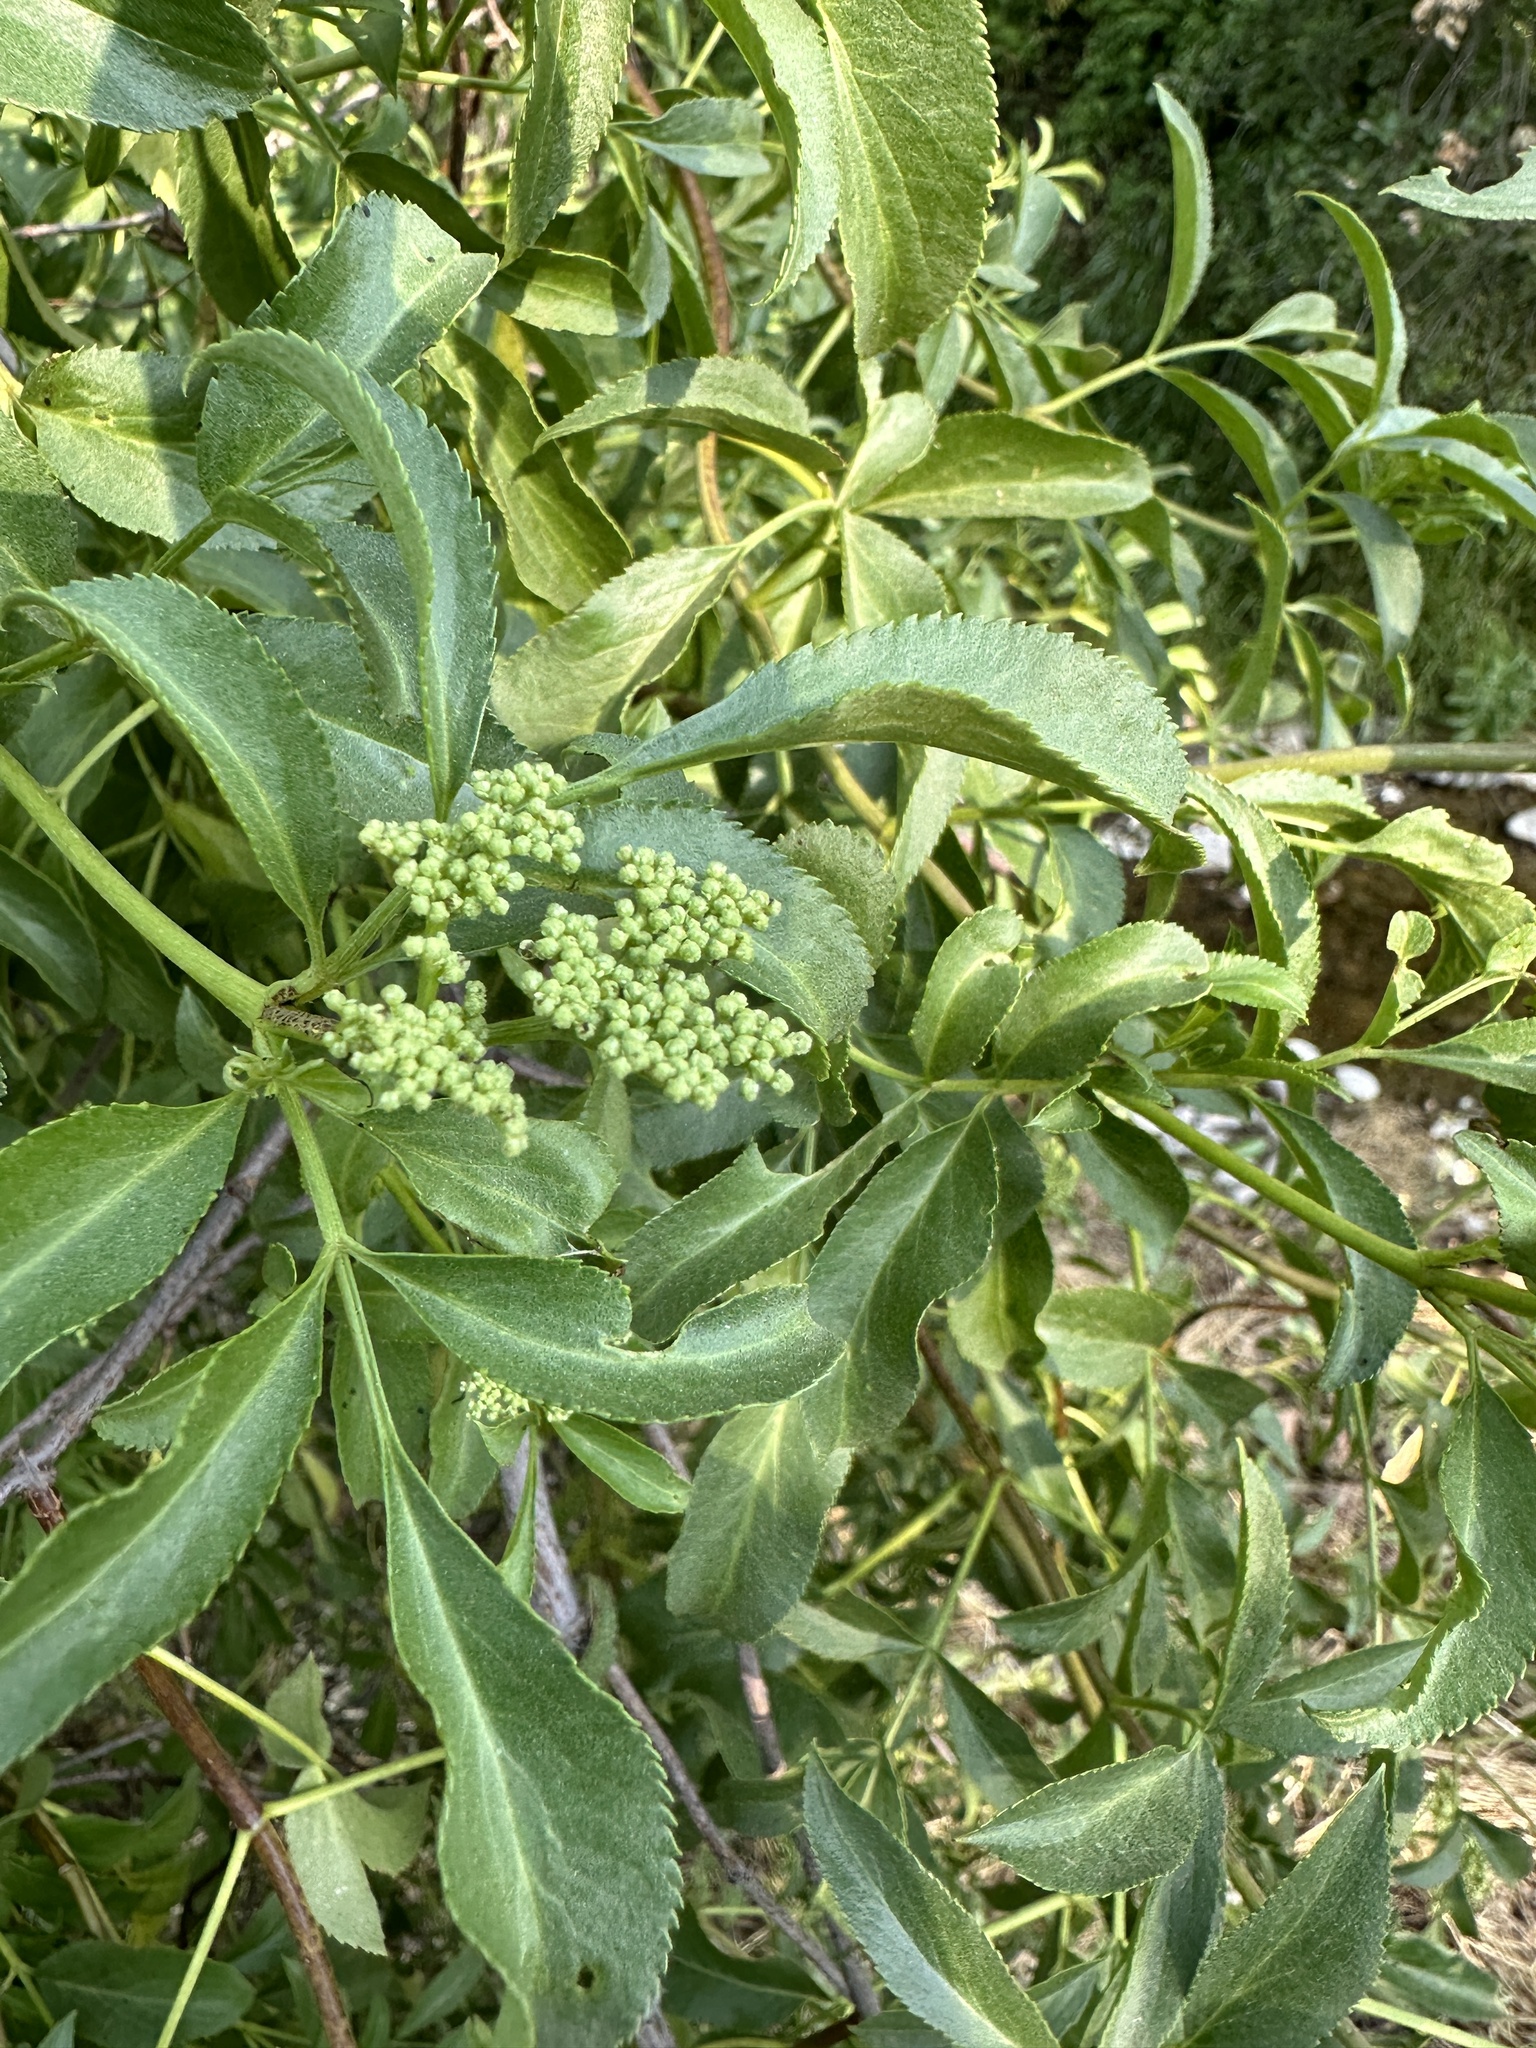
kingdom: Plantae
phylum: Tracheophyta
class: Magnoliopsida
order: Dipsacales
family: Viburnaceae
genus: Sambucus
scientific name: Sambucus cerulea
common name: Blue elder
